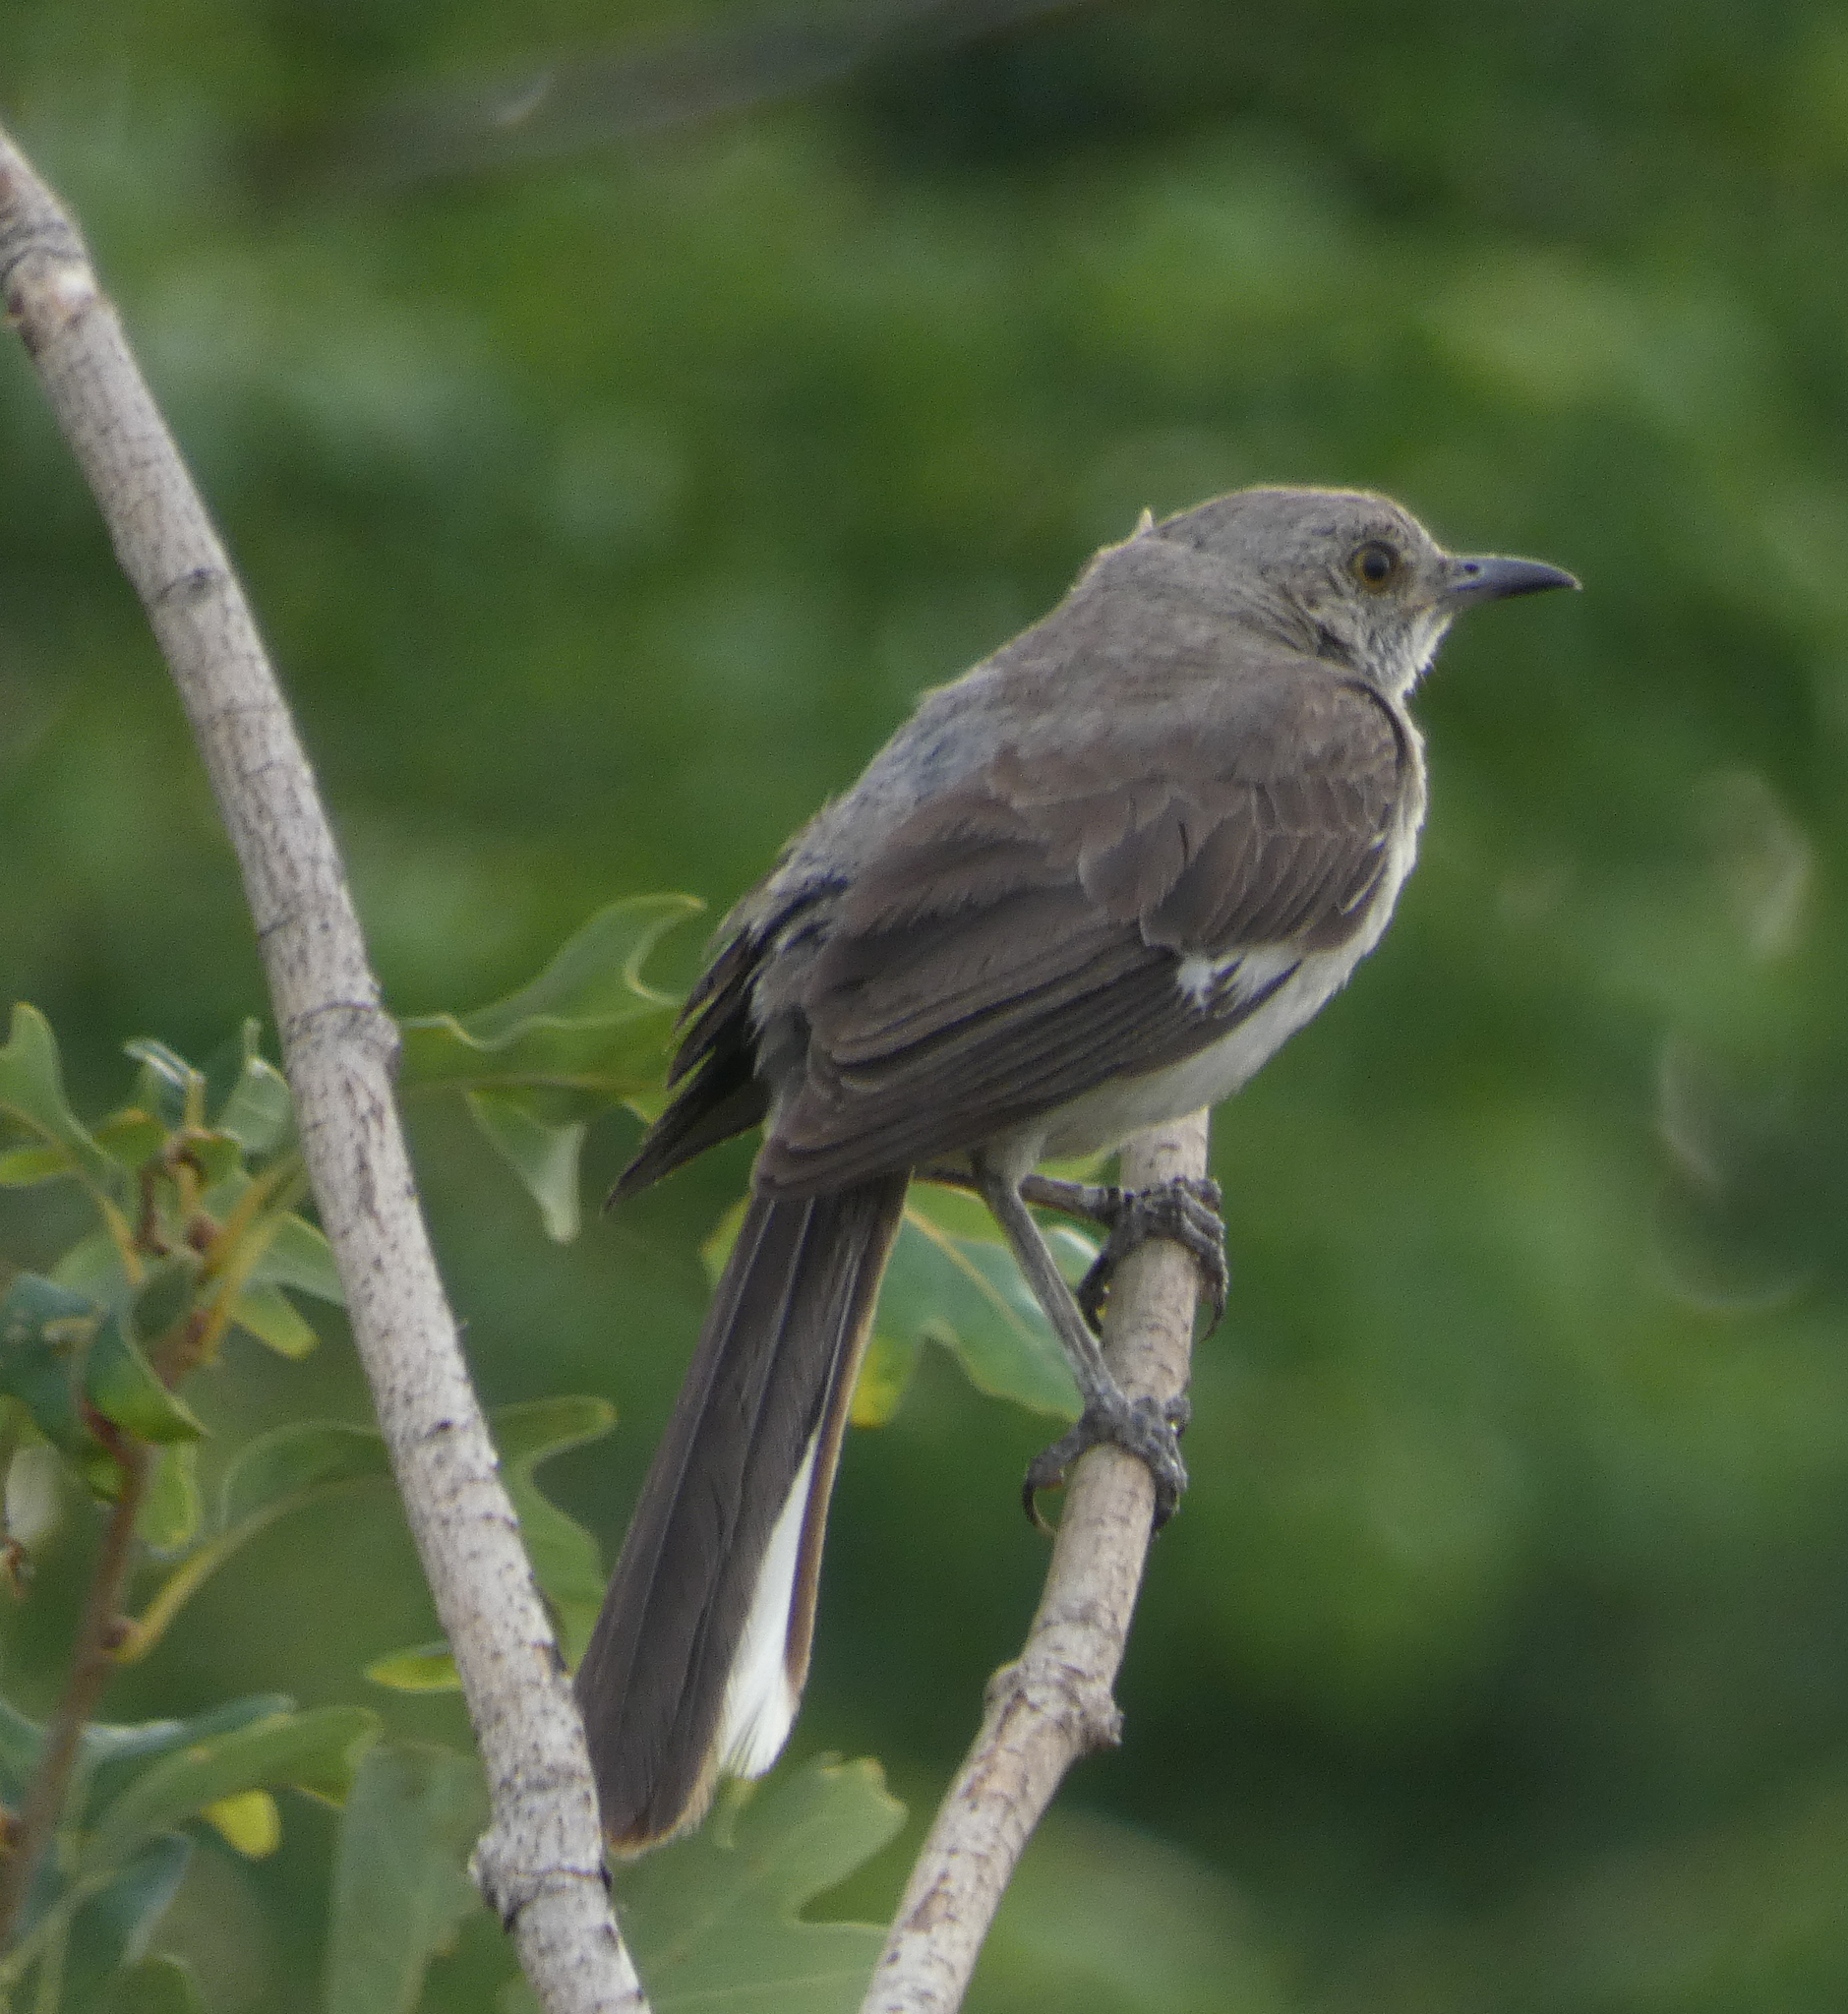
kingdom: Animalia
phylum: Chordata
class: Aves
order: Passeriformes
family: Mimidae
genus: Mimus
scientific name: Mimus polyglottos
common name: Northern mockingbird
